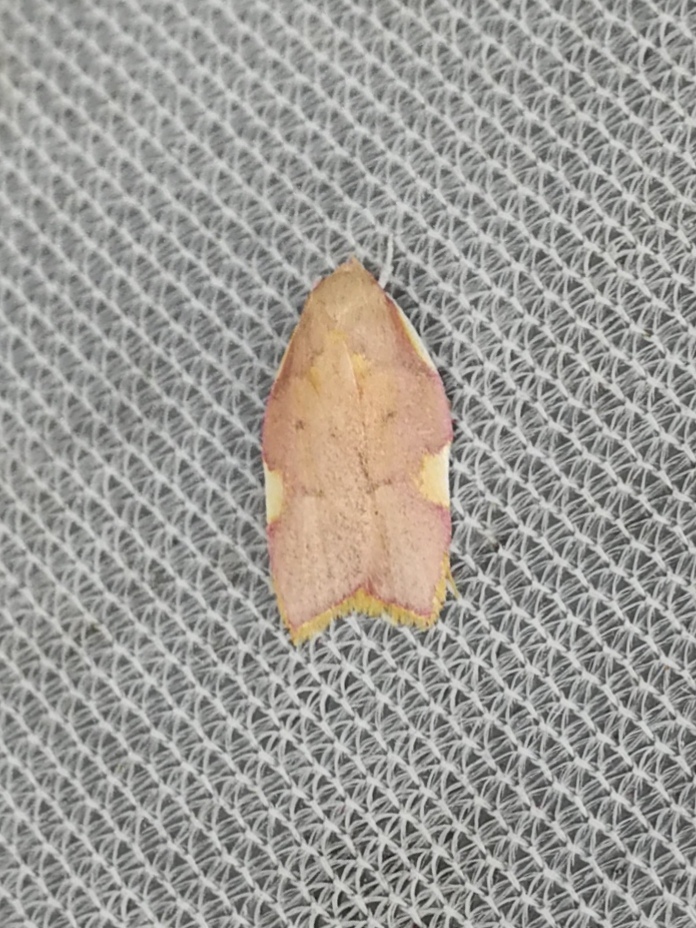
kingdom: Animalia
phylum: Arthropoda
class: Insecta
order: Lepidoptera
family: Peleopodidae
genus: Carcina
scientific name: Carcina quercana
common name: Moth
